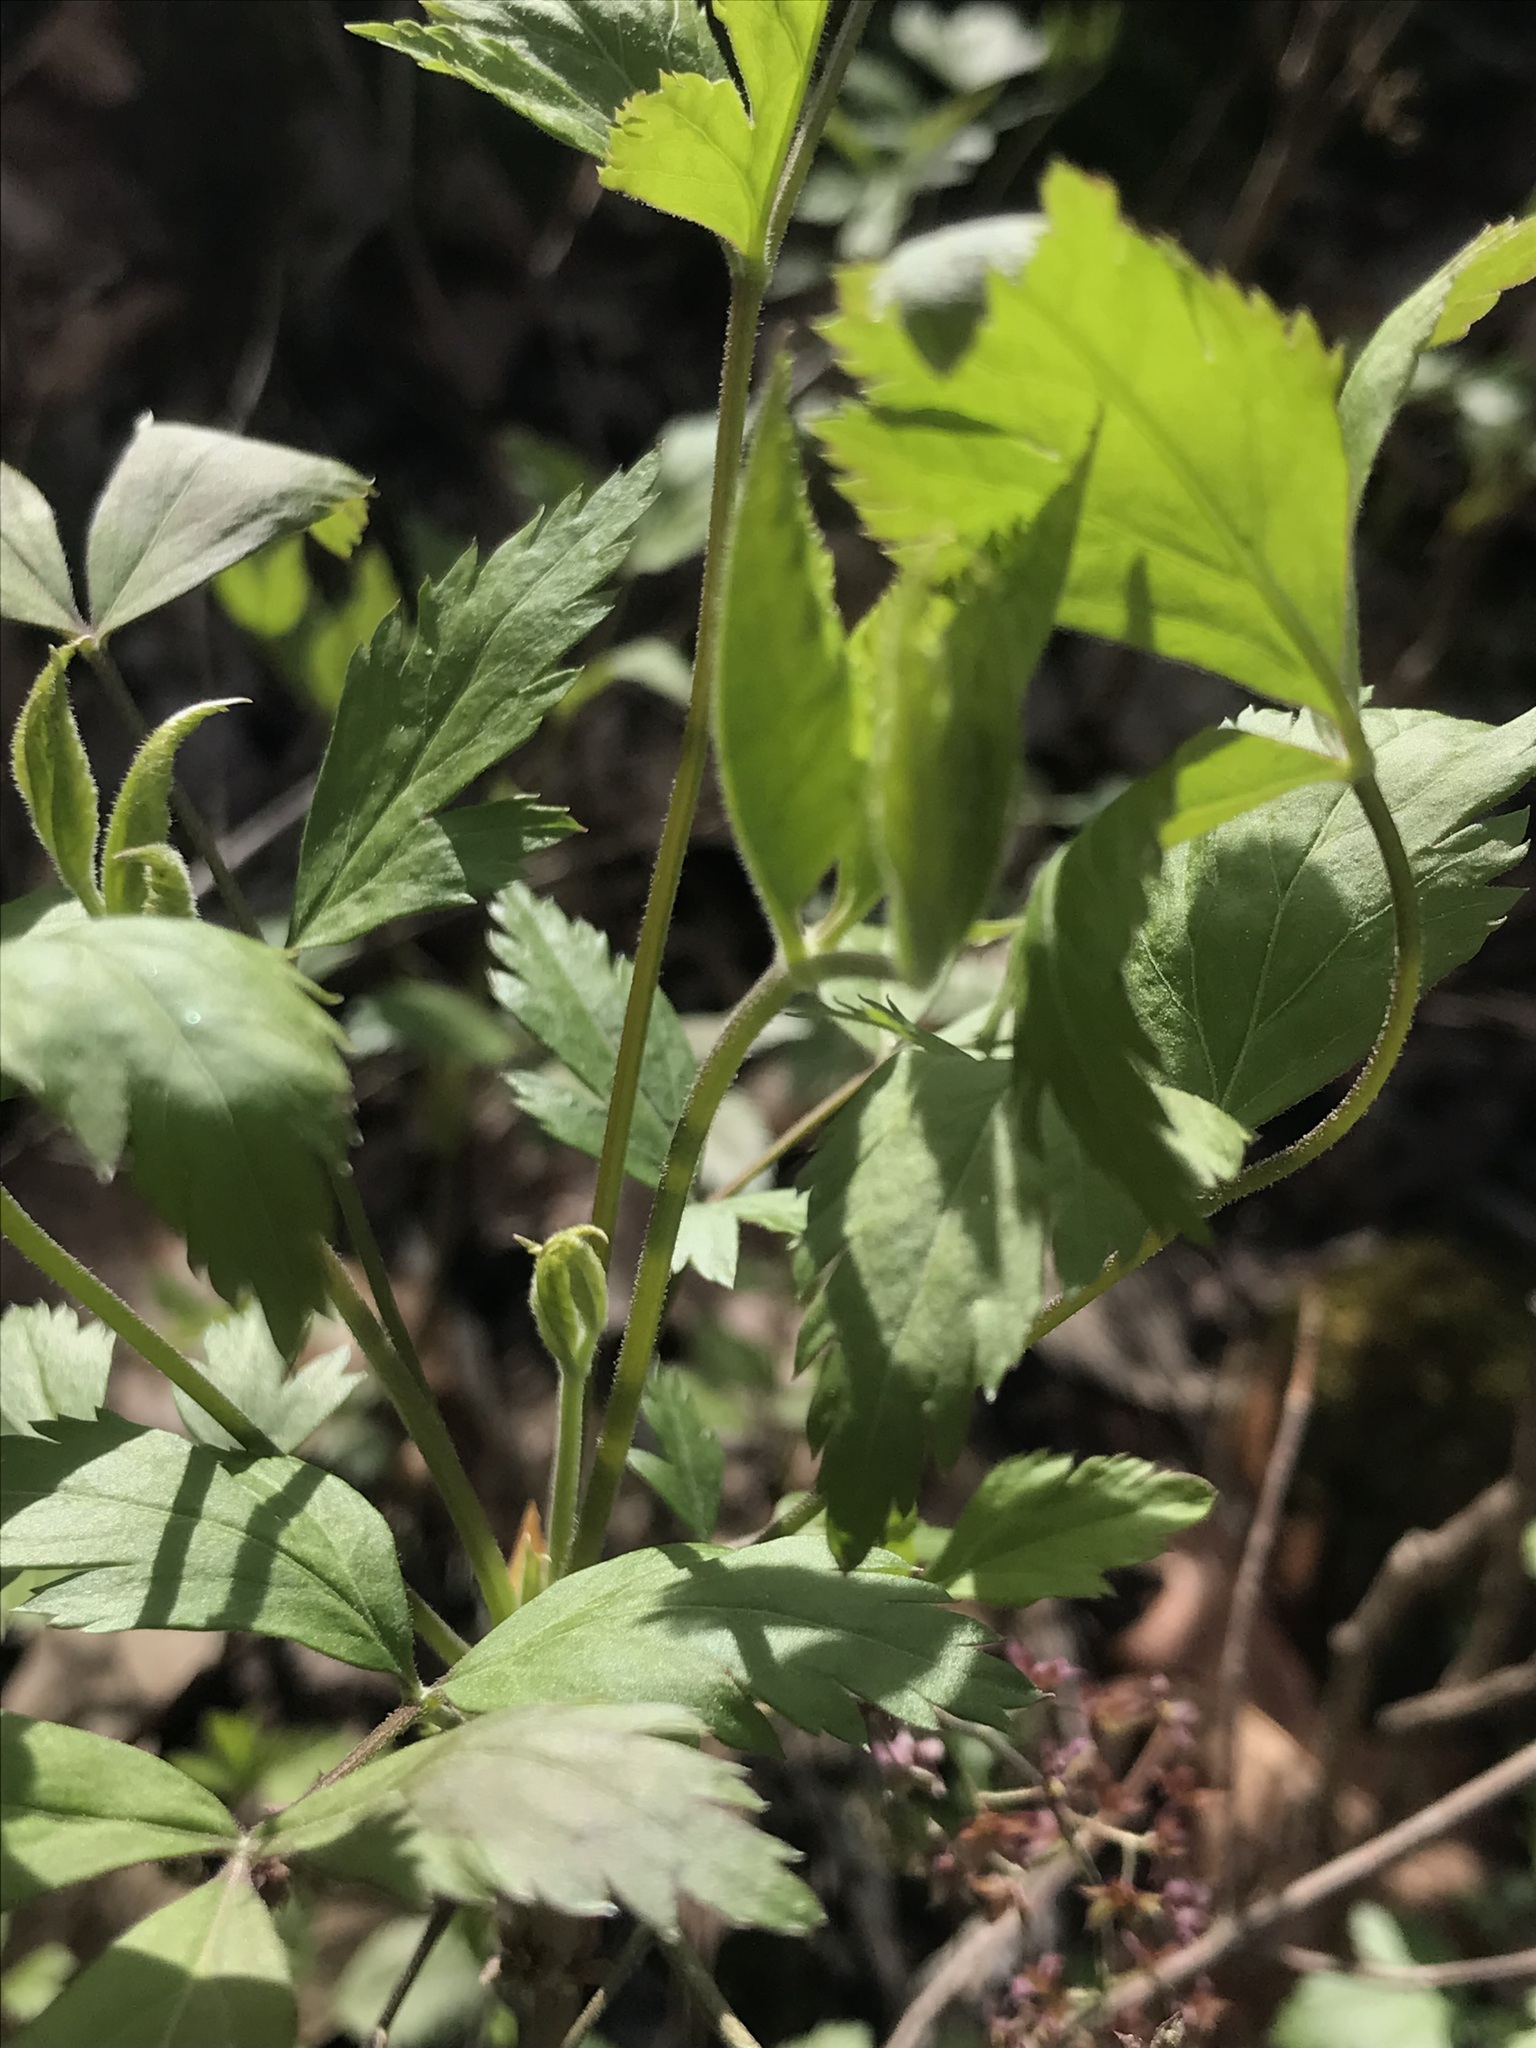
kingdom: Plantae
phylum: Tracheophyta
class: Magnoliopsida
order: Ranunculales
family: Ranunculaceae
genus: Xanthorhiza
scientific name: Xanthorhiza simplicissima
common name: Yellowroot
